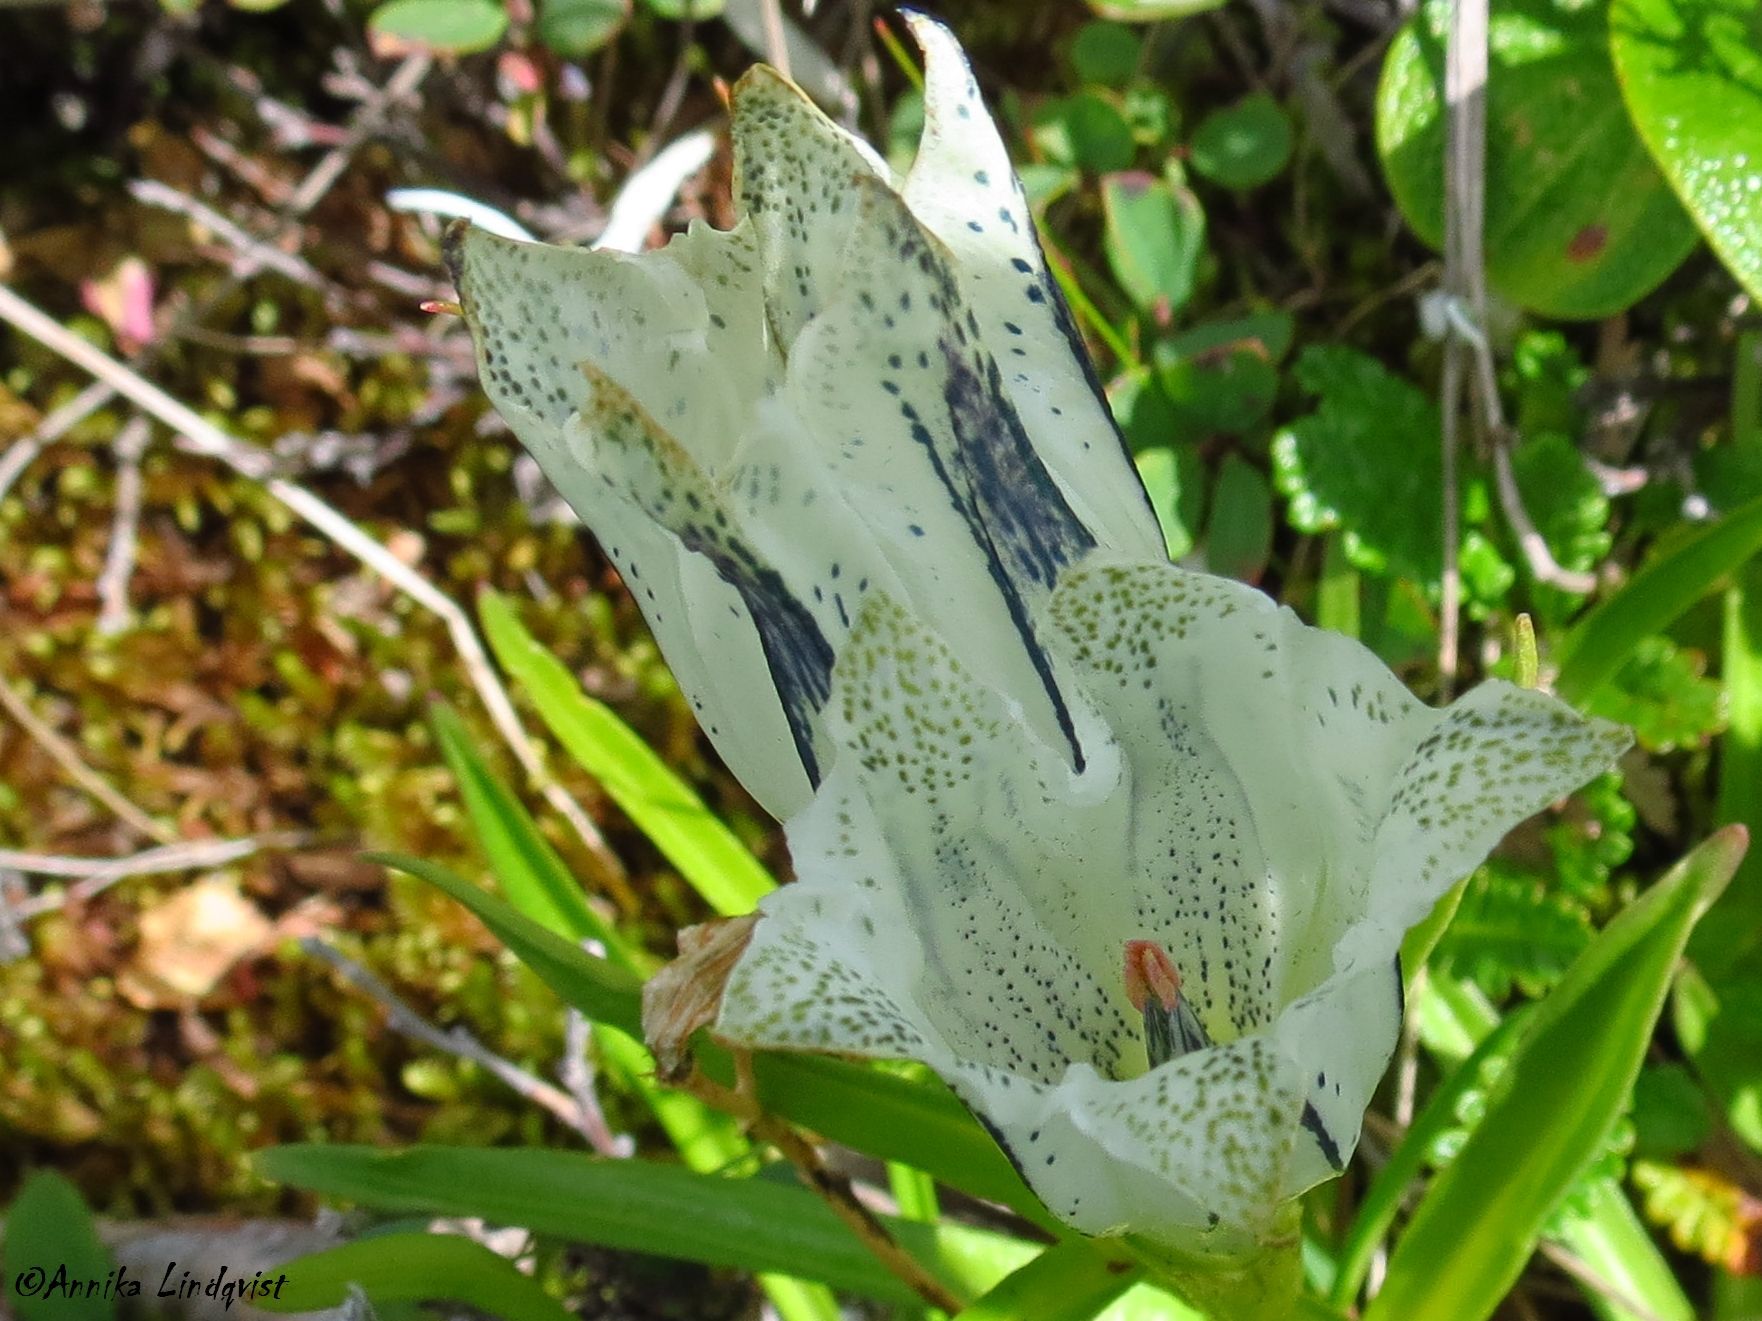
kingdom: Plantae
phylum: Tracheophyta
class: Magnoliopsida
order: Gentianales
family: Gentianaceae
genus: Gentiana
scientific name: Gentiana algida
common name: Arctic gentian
